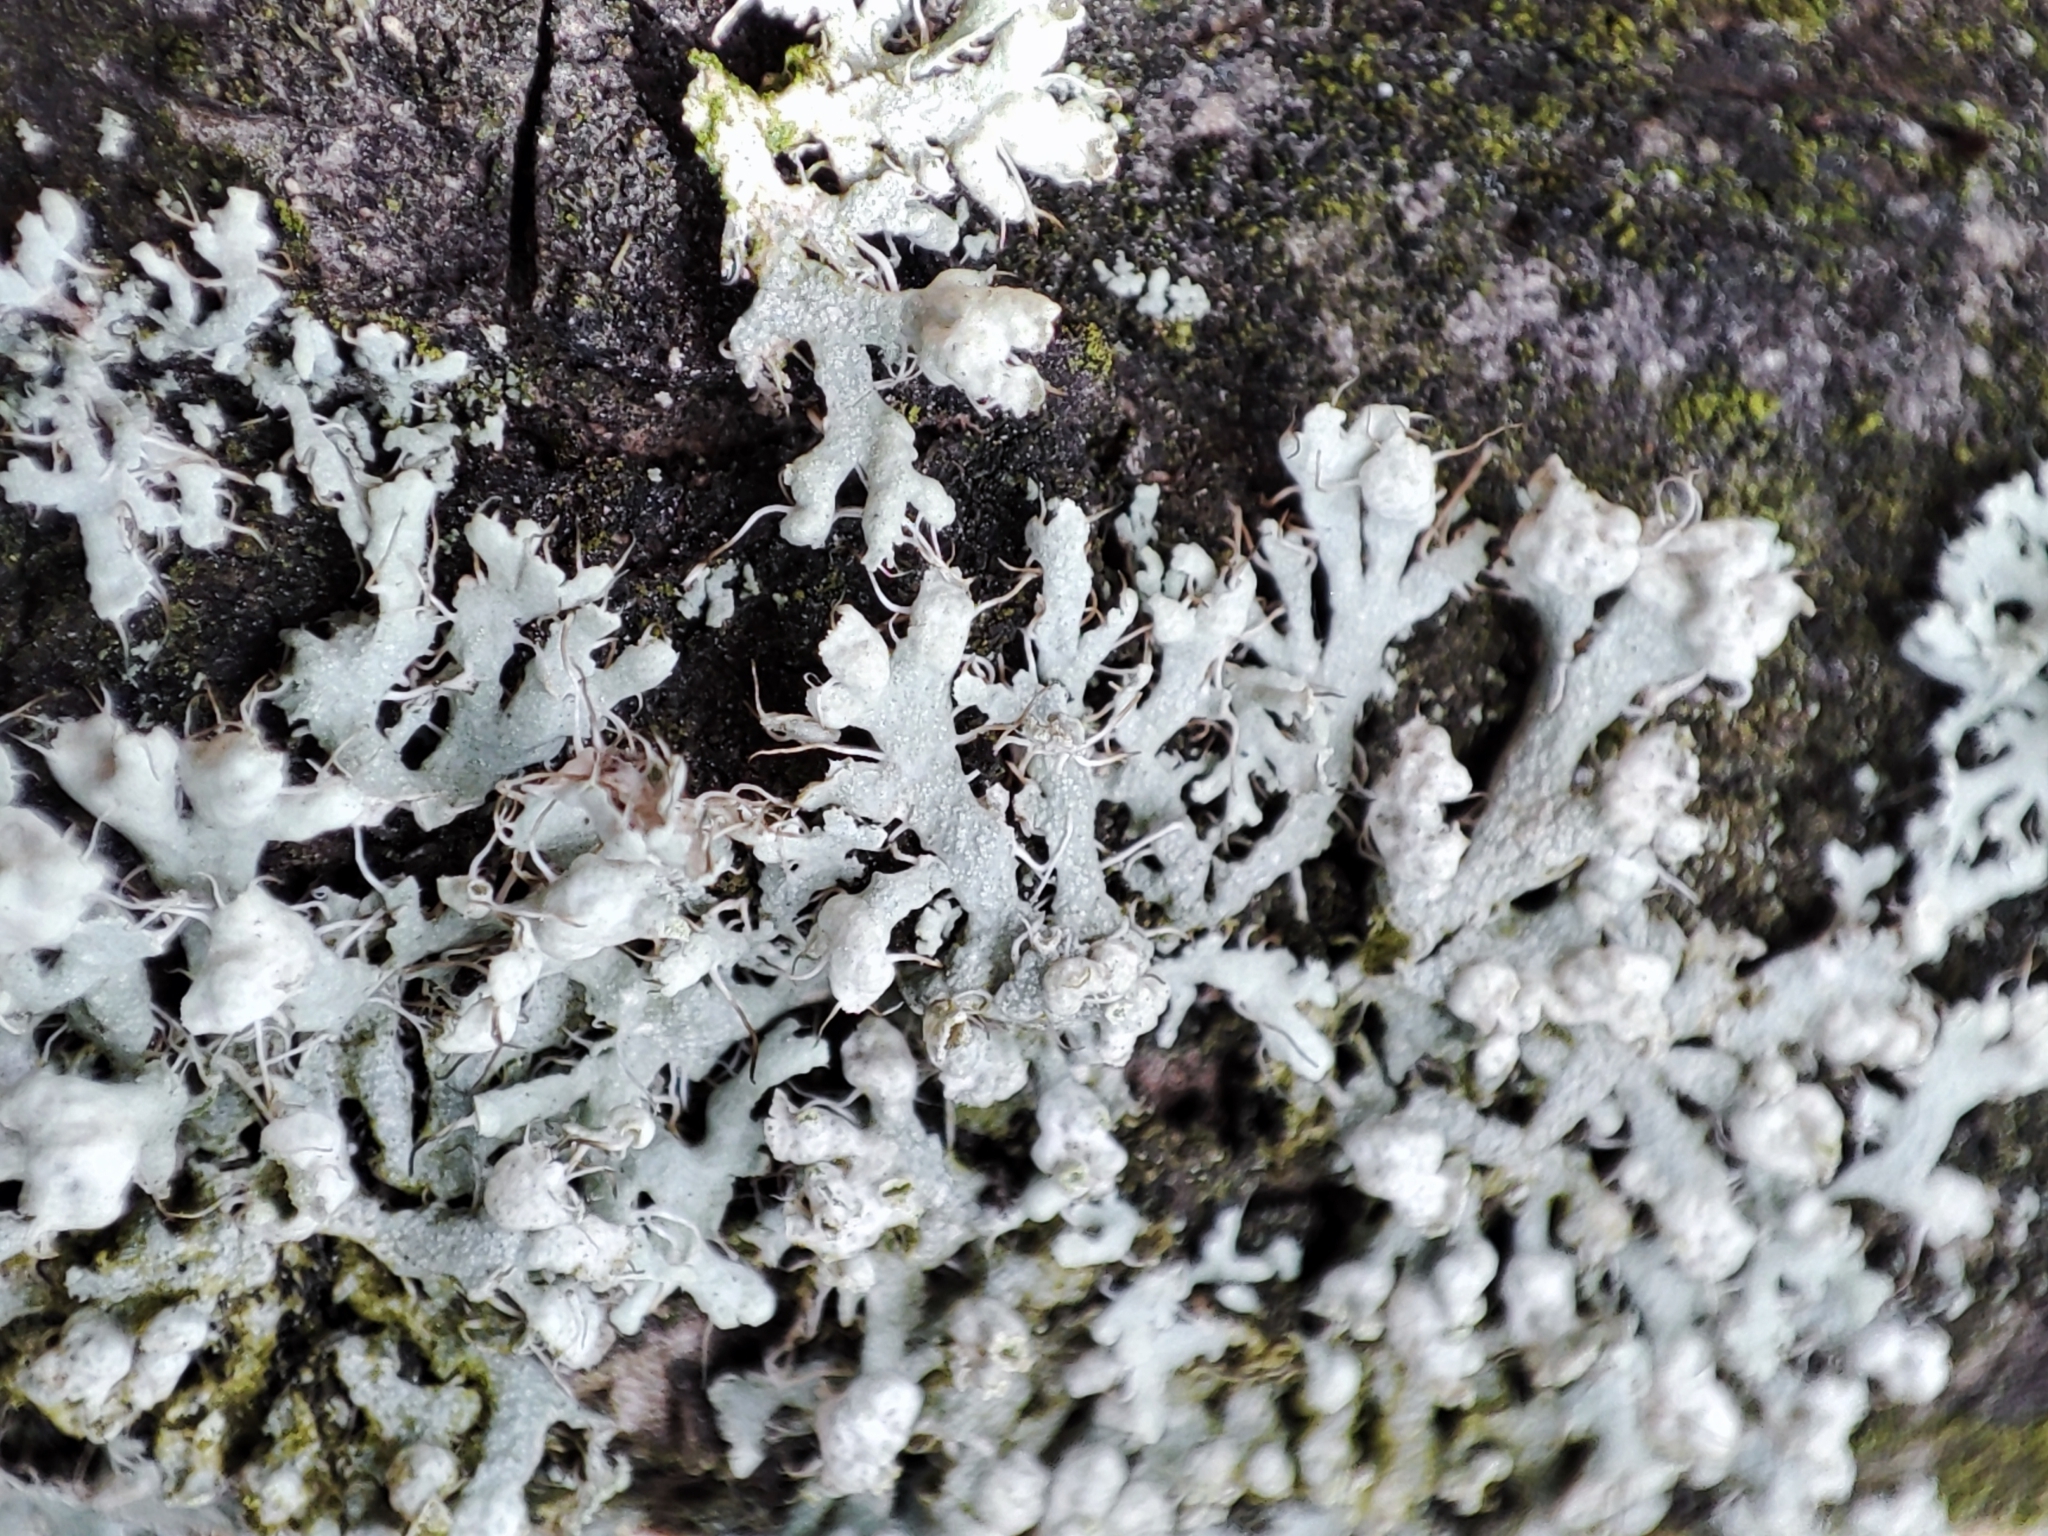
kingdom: Fungi
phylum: Ascomycota
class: Lecanoromycetes
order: Caliciales
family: Physciaceae
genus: Physcia
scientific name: Physcia adscendens
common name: Hooded rosette lichen
